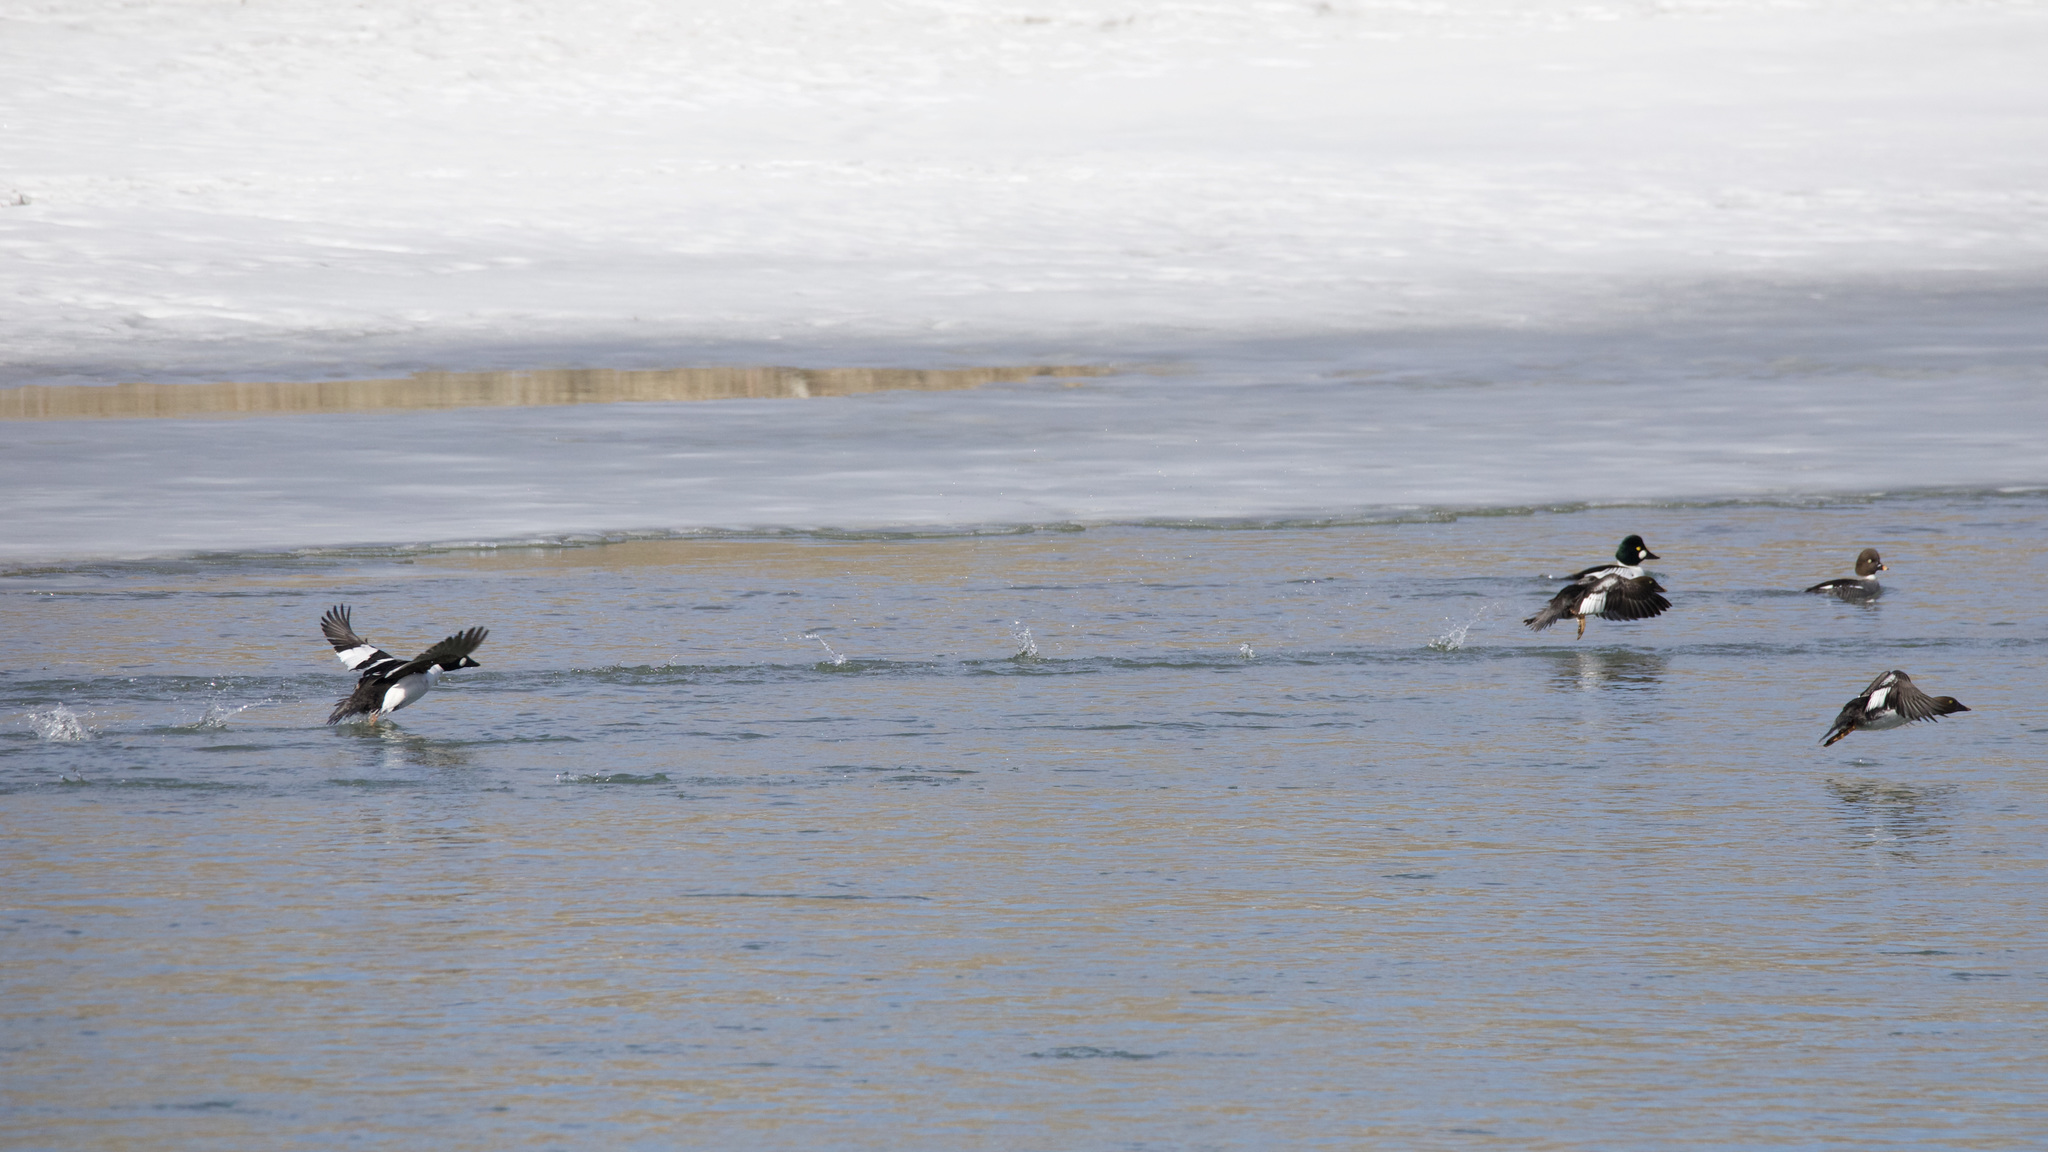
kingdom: Animalia
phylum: Chordata
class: Aves
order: Anseriformes
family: Anatidae
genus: Bucephala
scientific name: Bucephala clangula
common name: Common goldeneye
